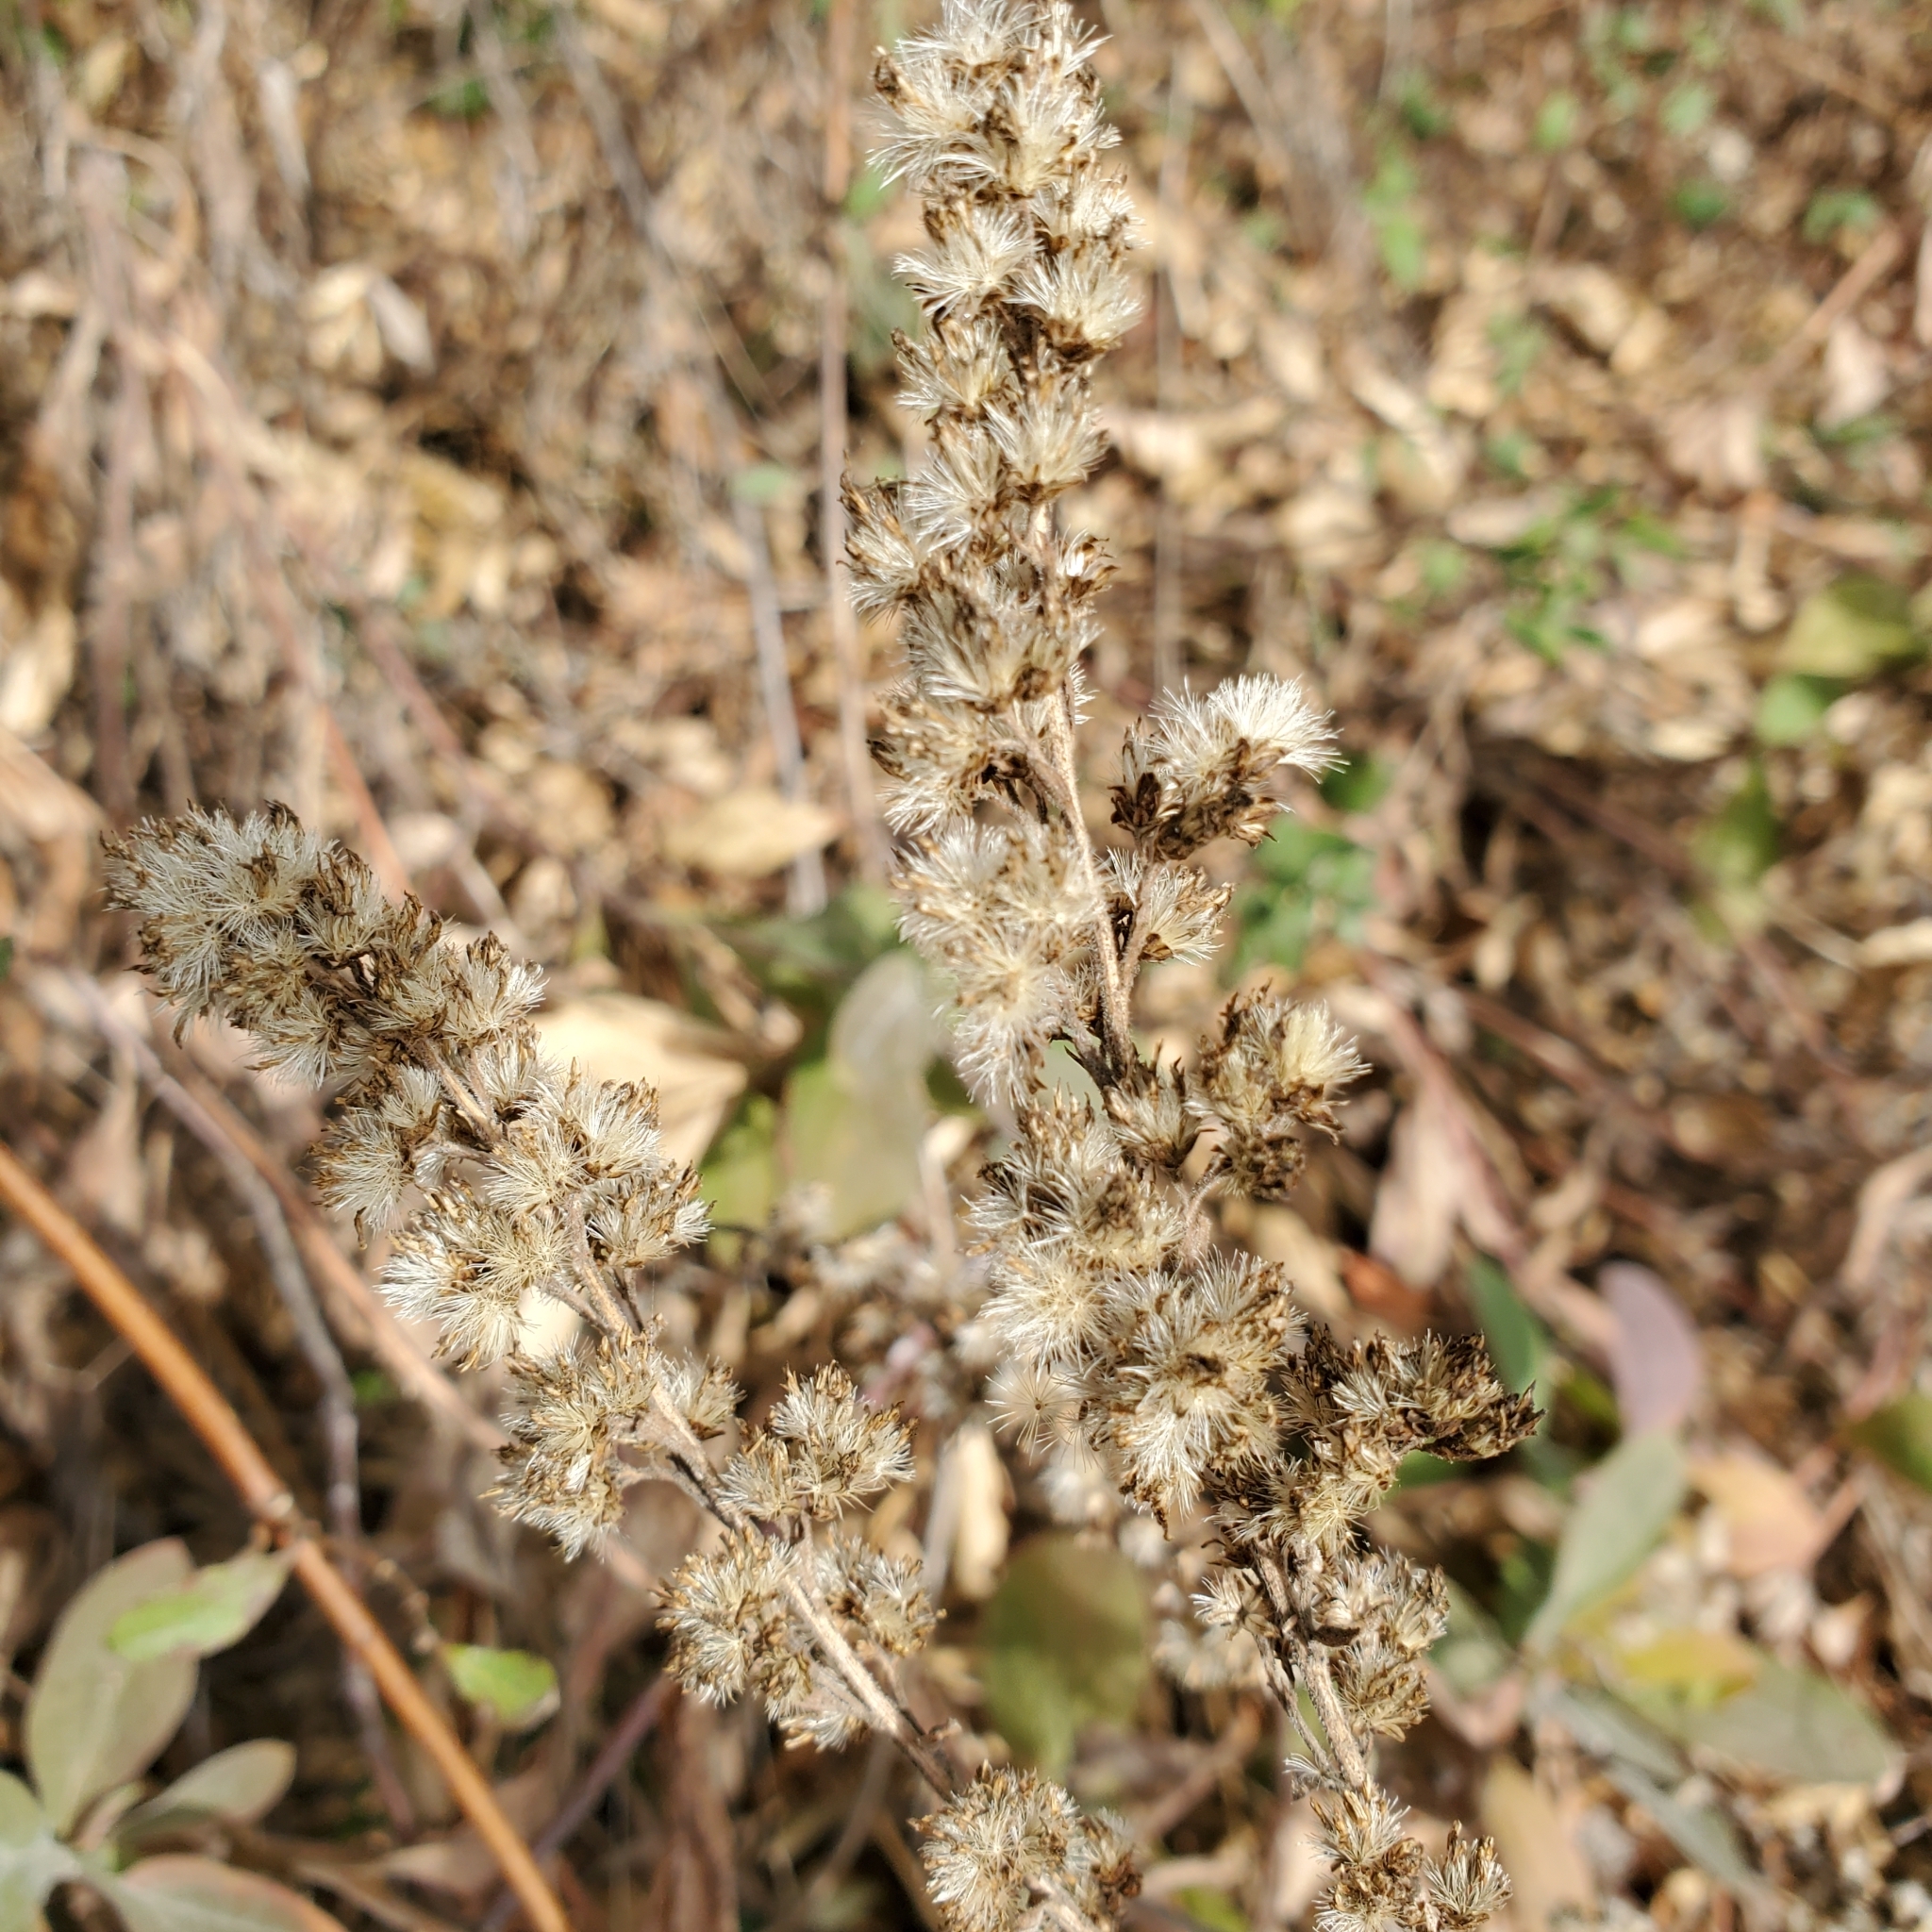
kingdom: Plantae
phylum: Tracheophyta
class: Magnoliopsida
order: Asterales
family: Asteraceae
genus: Solidago
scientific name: Solidago californica
